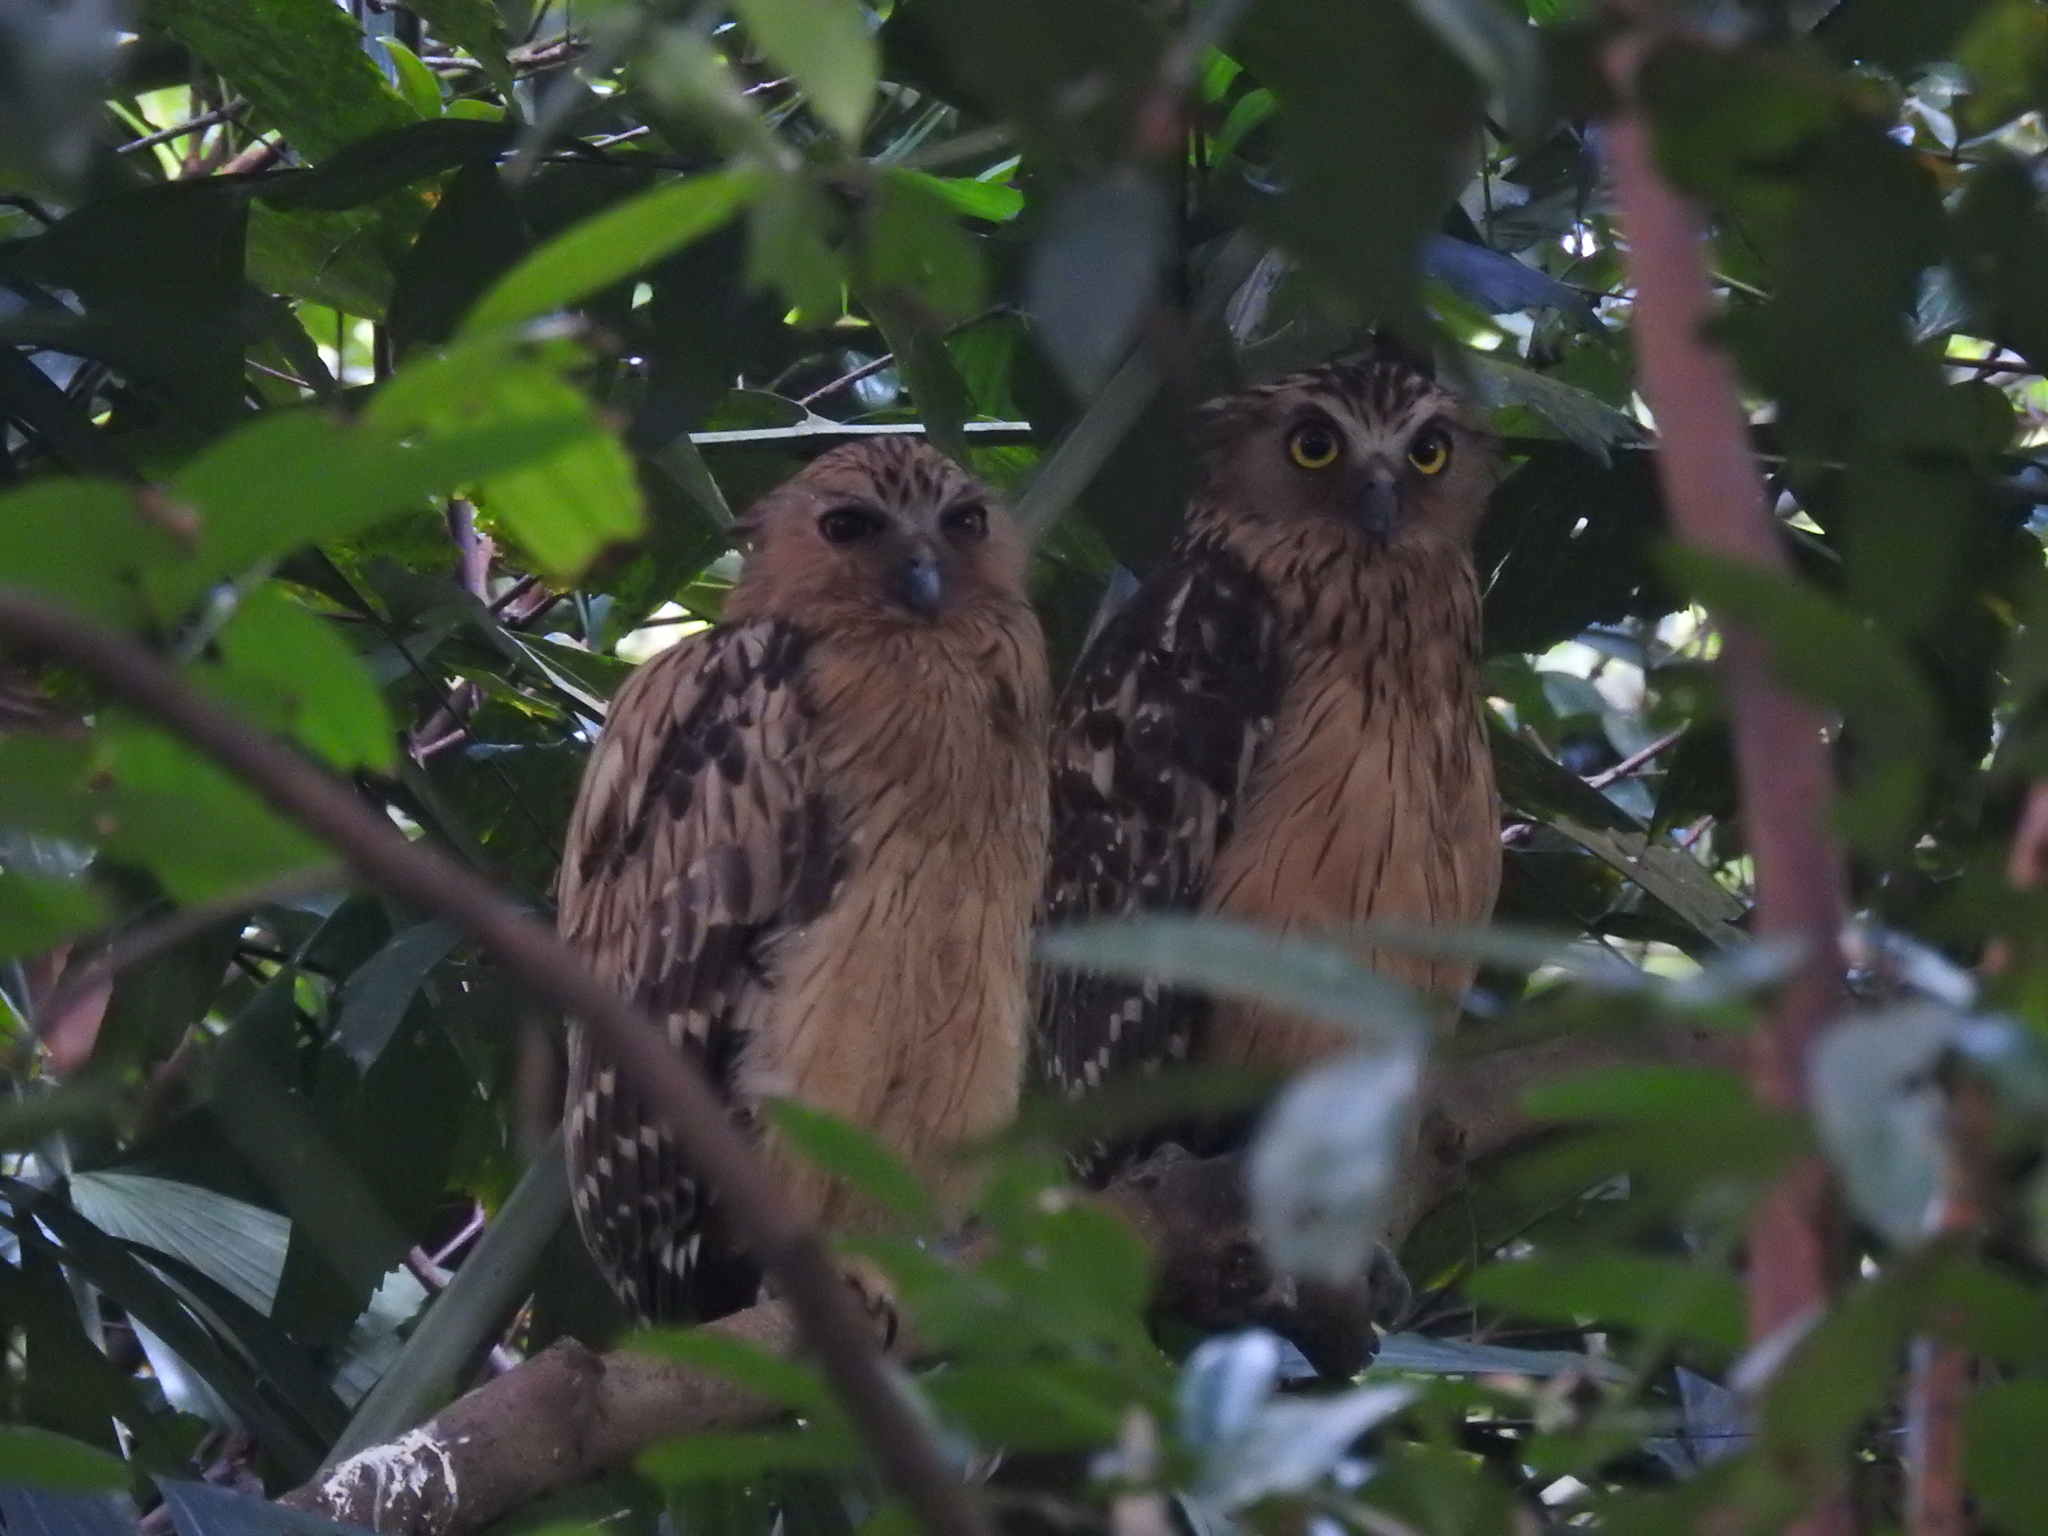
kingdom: Animalia
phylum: Chordata
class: Aves
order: Strigiformes
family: Strigidae
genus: Ketupa
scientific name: Ketupa ketupu
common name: Buffy fish-owl
